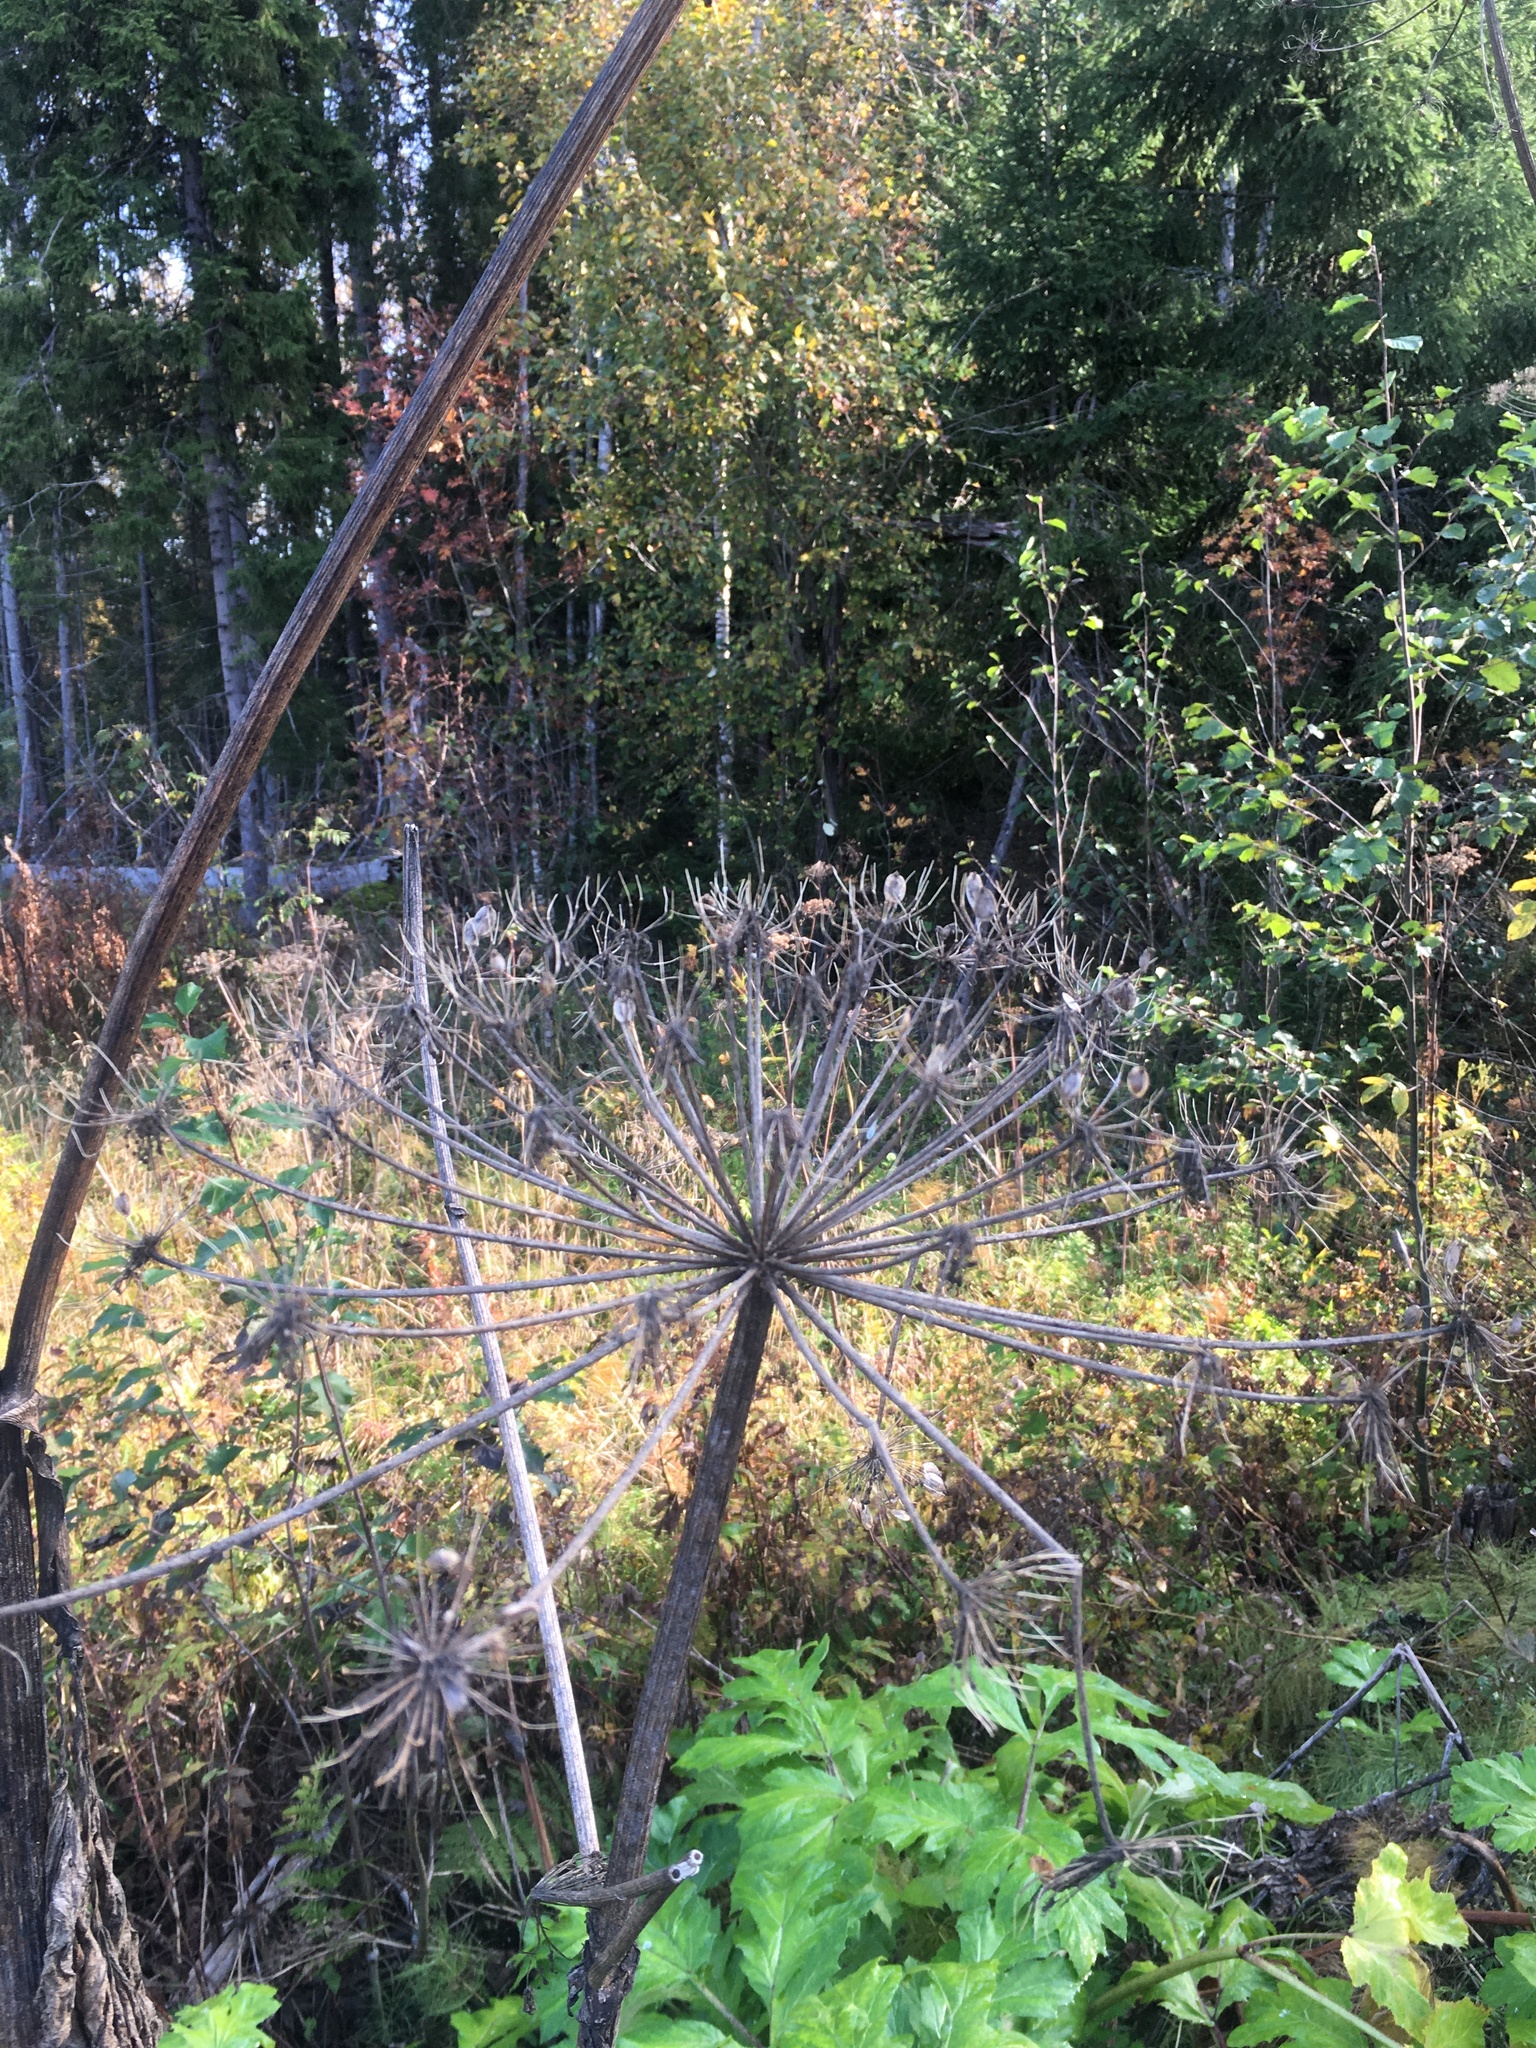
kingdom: Plantae
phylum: Tracheophyta
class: Magnoliopsida
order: Apiales
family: Apiaceae
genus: Heracleum
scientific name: Heracleum sosnowskyi
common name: Sosnowsky's hogweed
